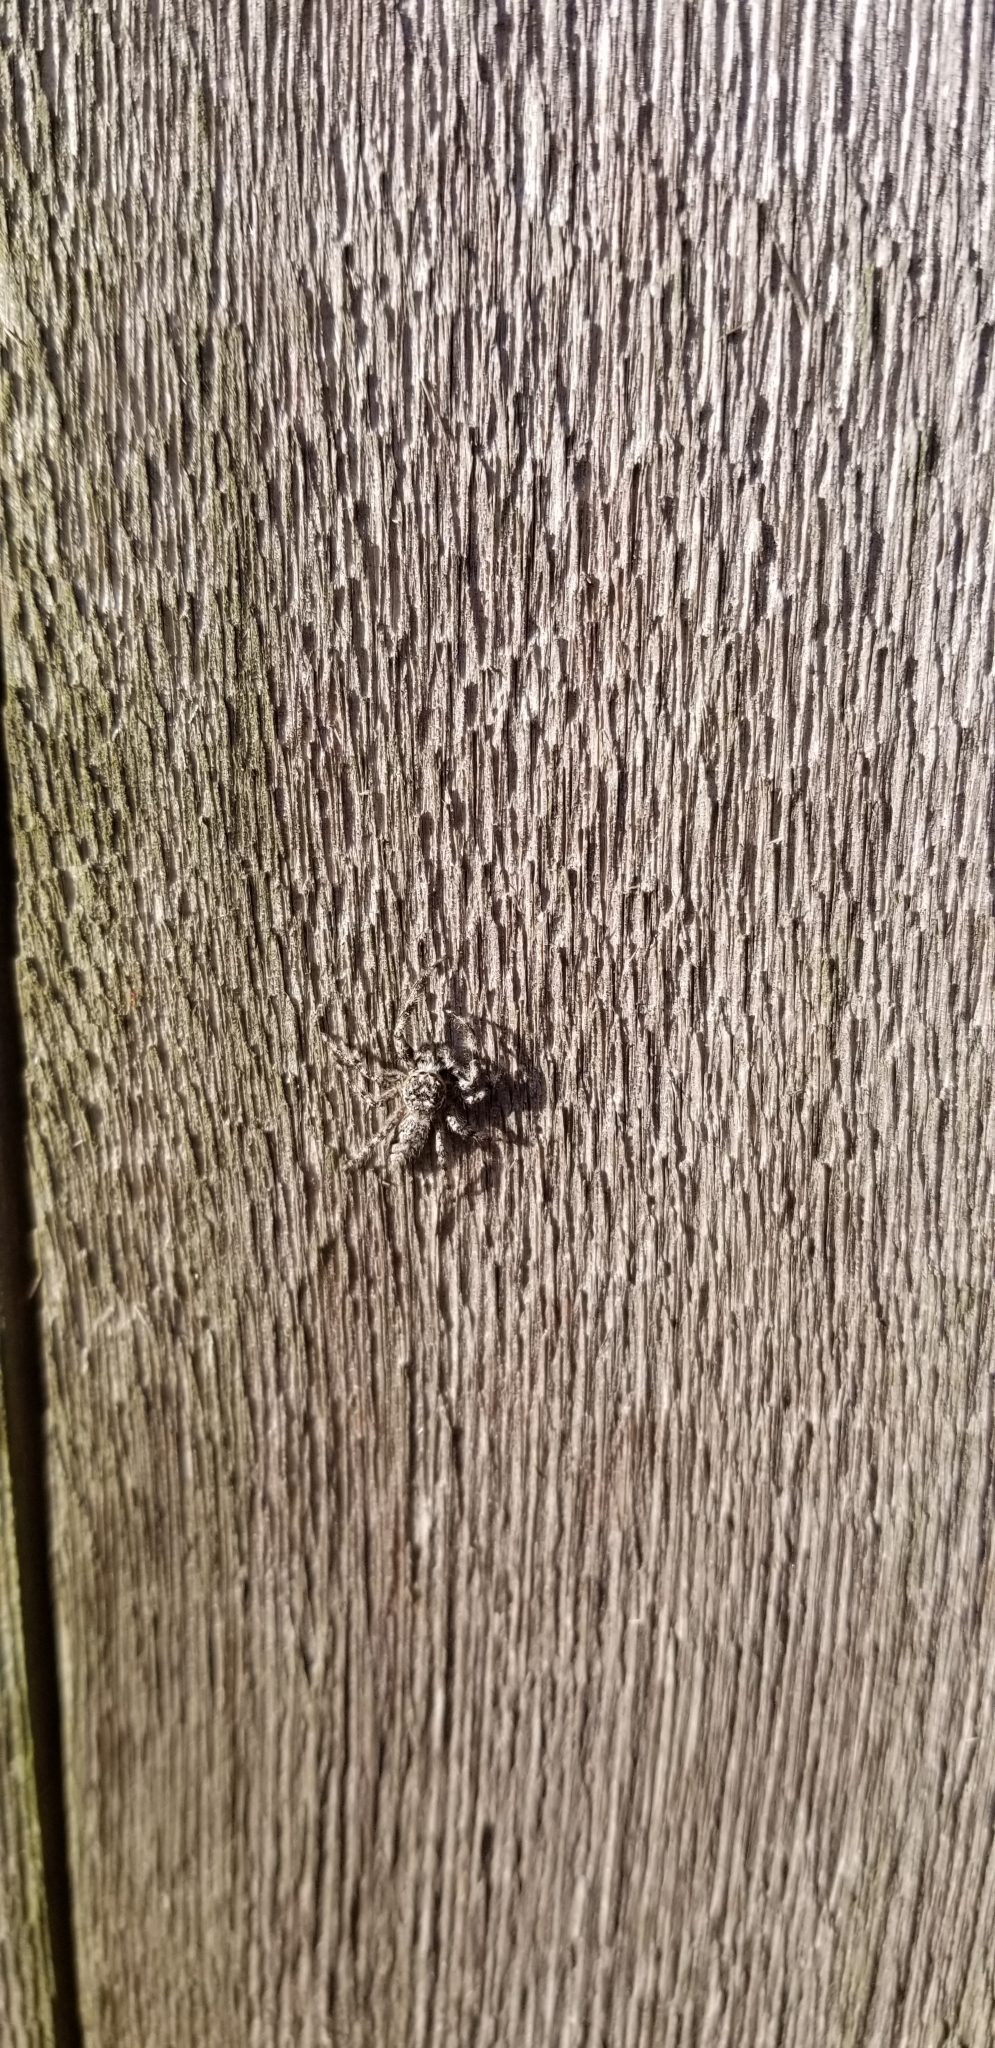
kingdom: Animalia
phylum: Arthropoda
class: Arachnida
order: Araneae
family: Salticidae
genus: Platycryptus
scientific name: Platycryptus undatus
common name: Tan jumping spider
